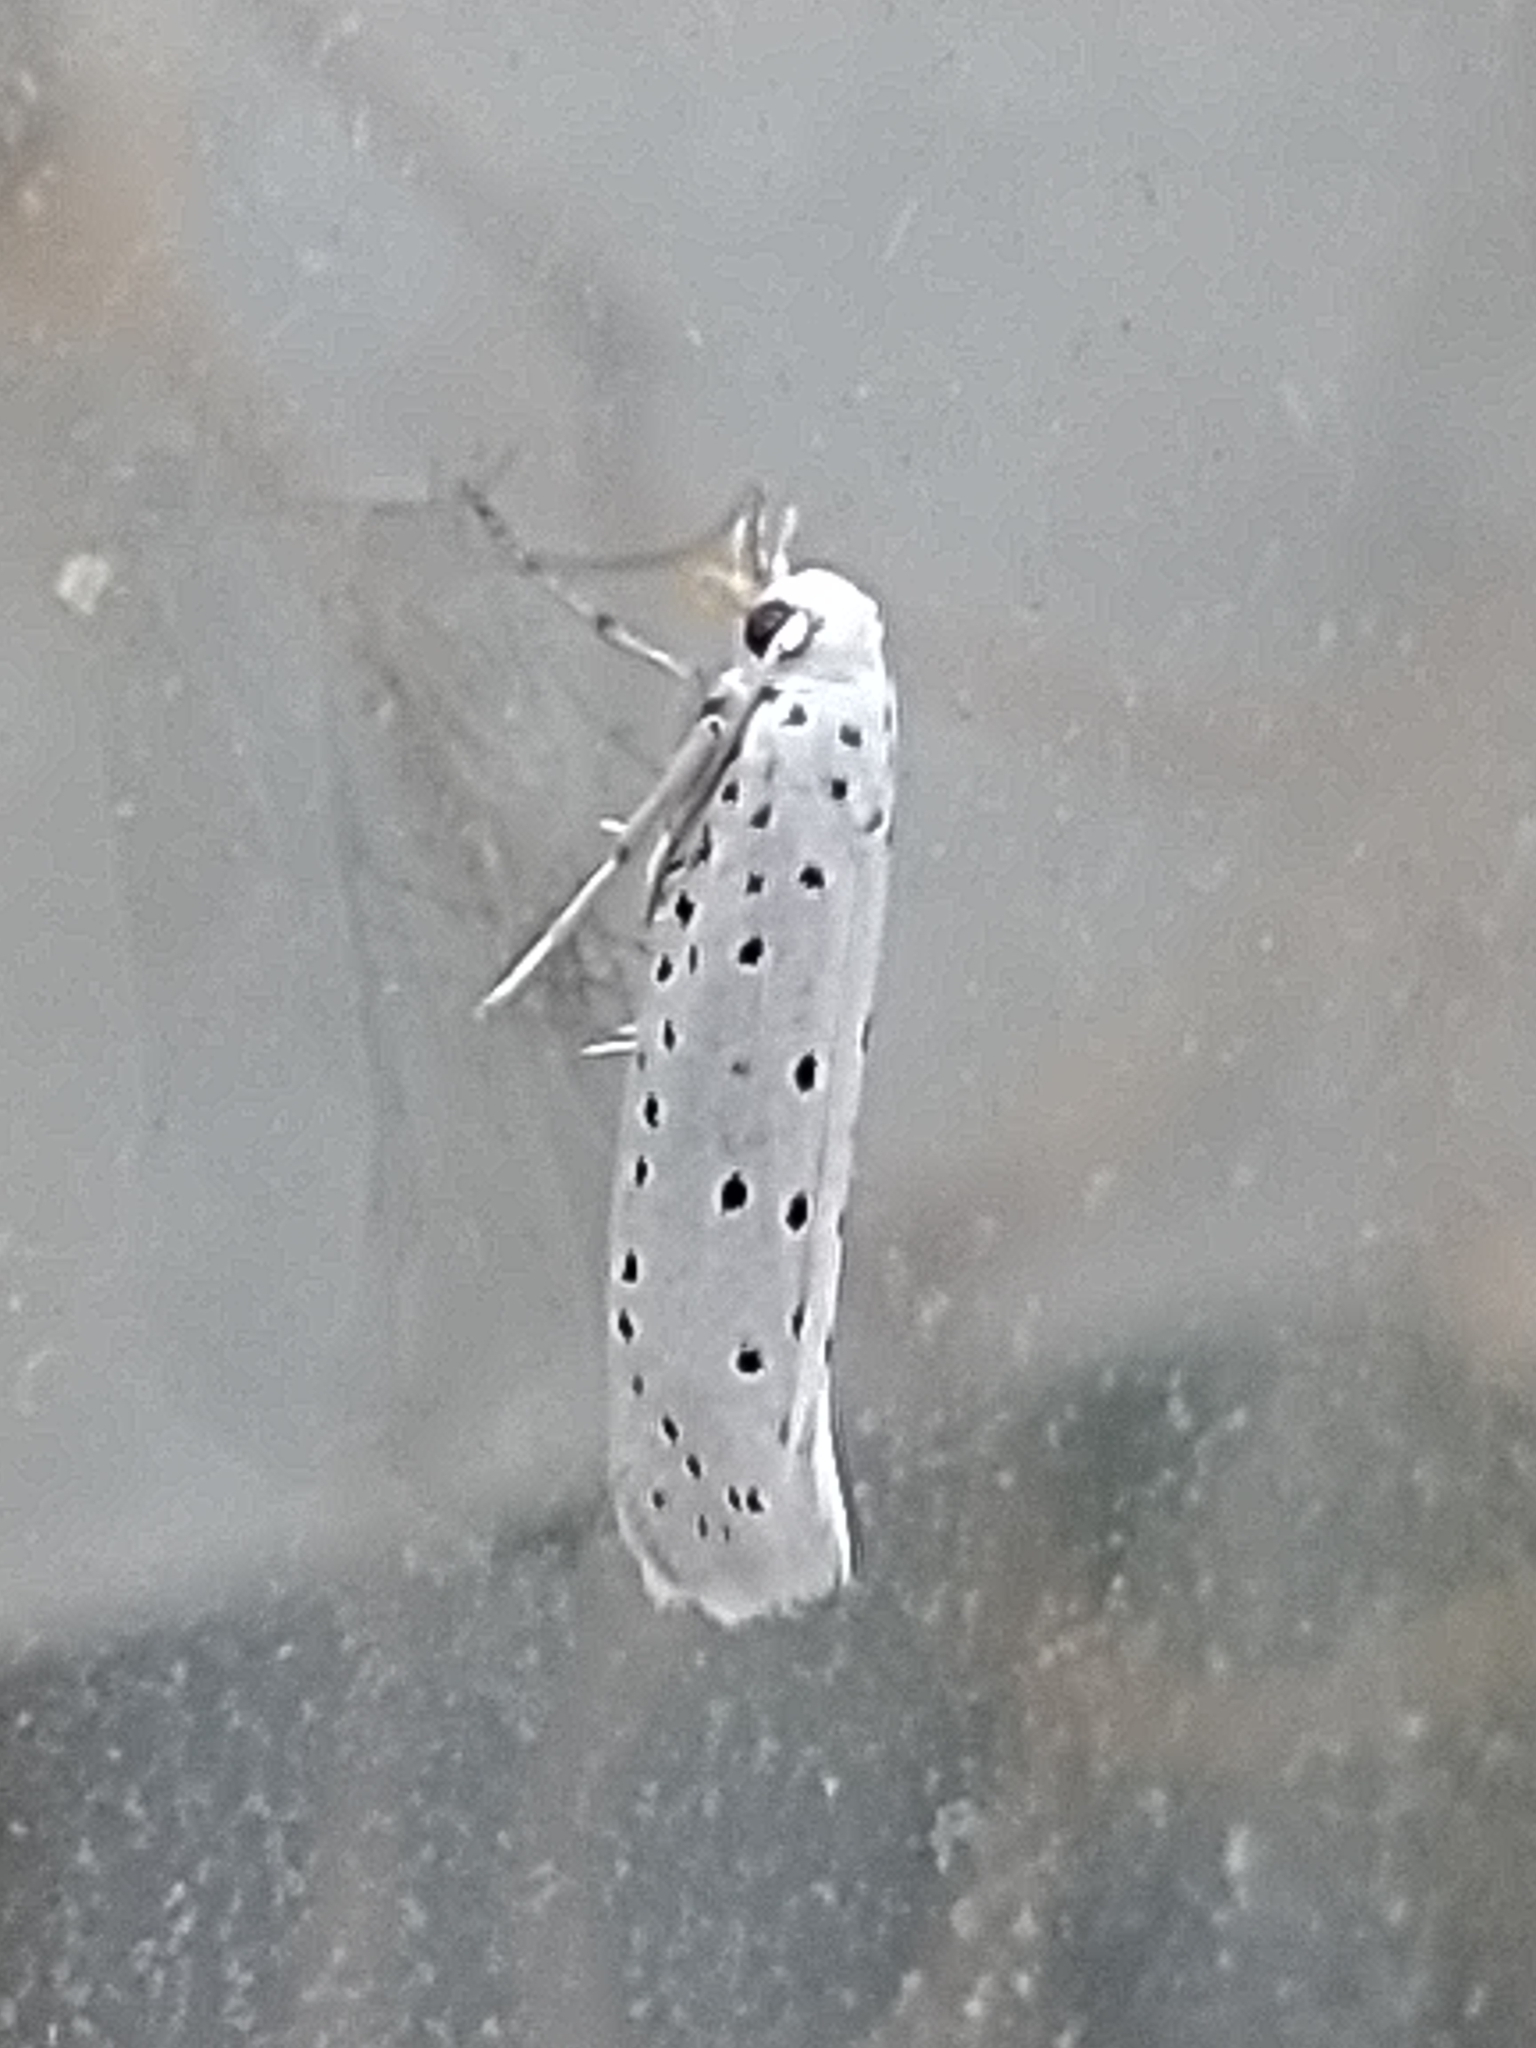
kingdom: Animalia
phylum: Arthropoda
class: Insecta
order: Lepidoptera
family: Yponomeutidae
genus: Yponomeuta
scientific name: Yponomeuta
